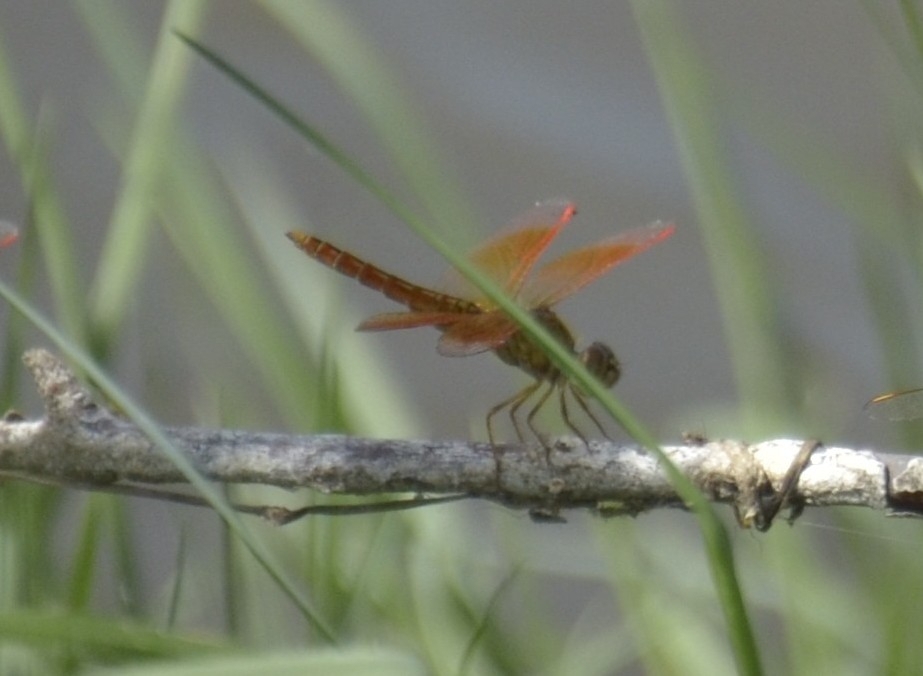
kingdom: Animalia
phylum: Arthropoda
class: Insecta
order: Odonata
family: Libellulidae
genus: Brachythemis
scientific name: Brachythemis contaminata
